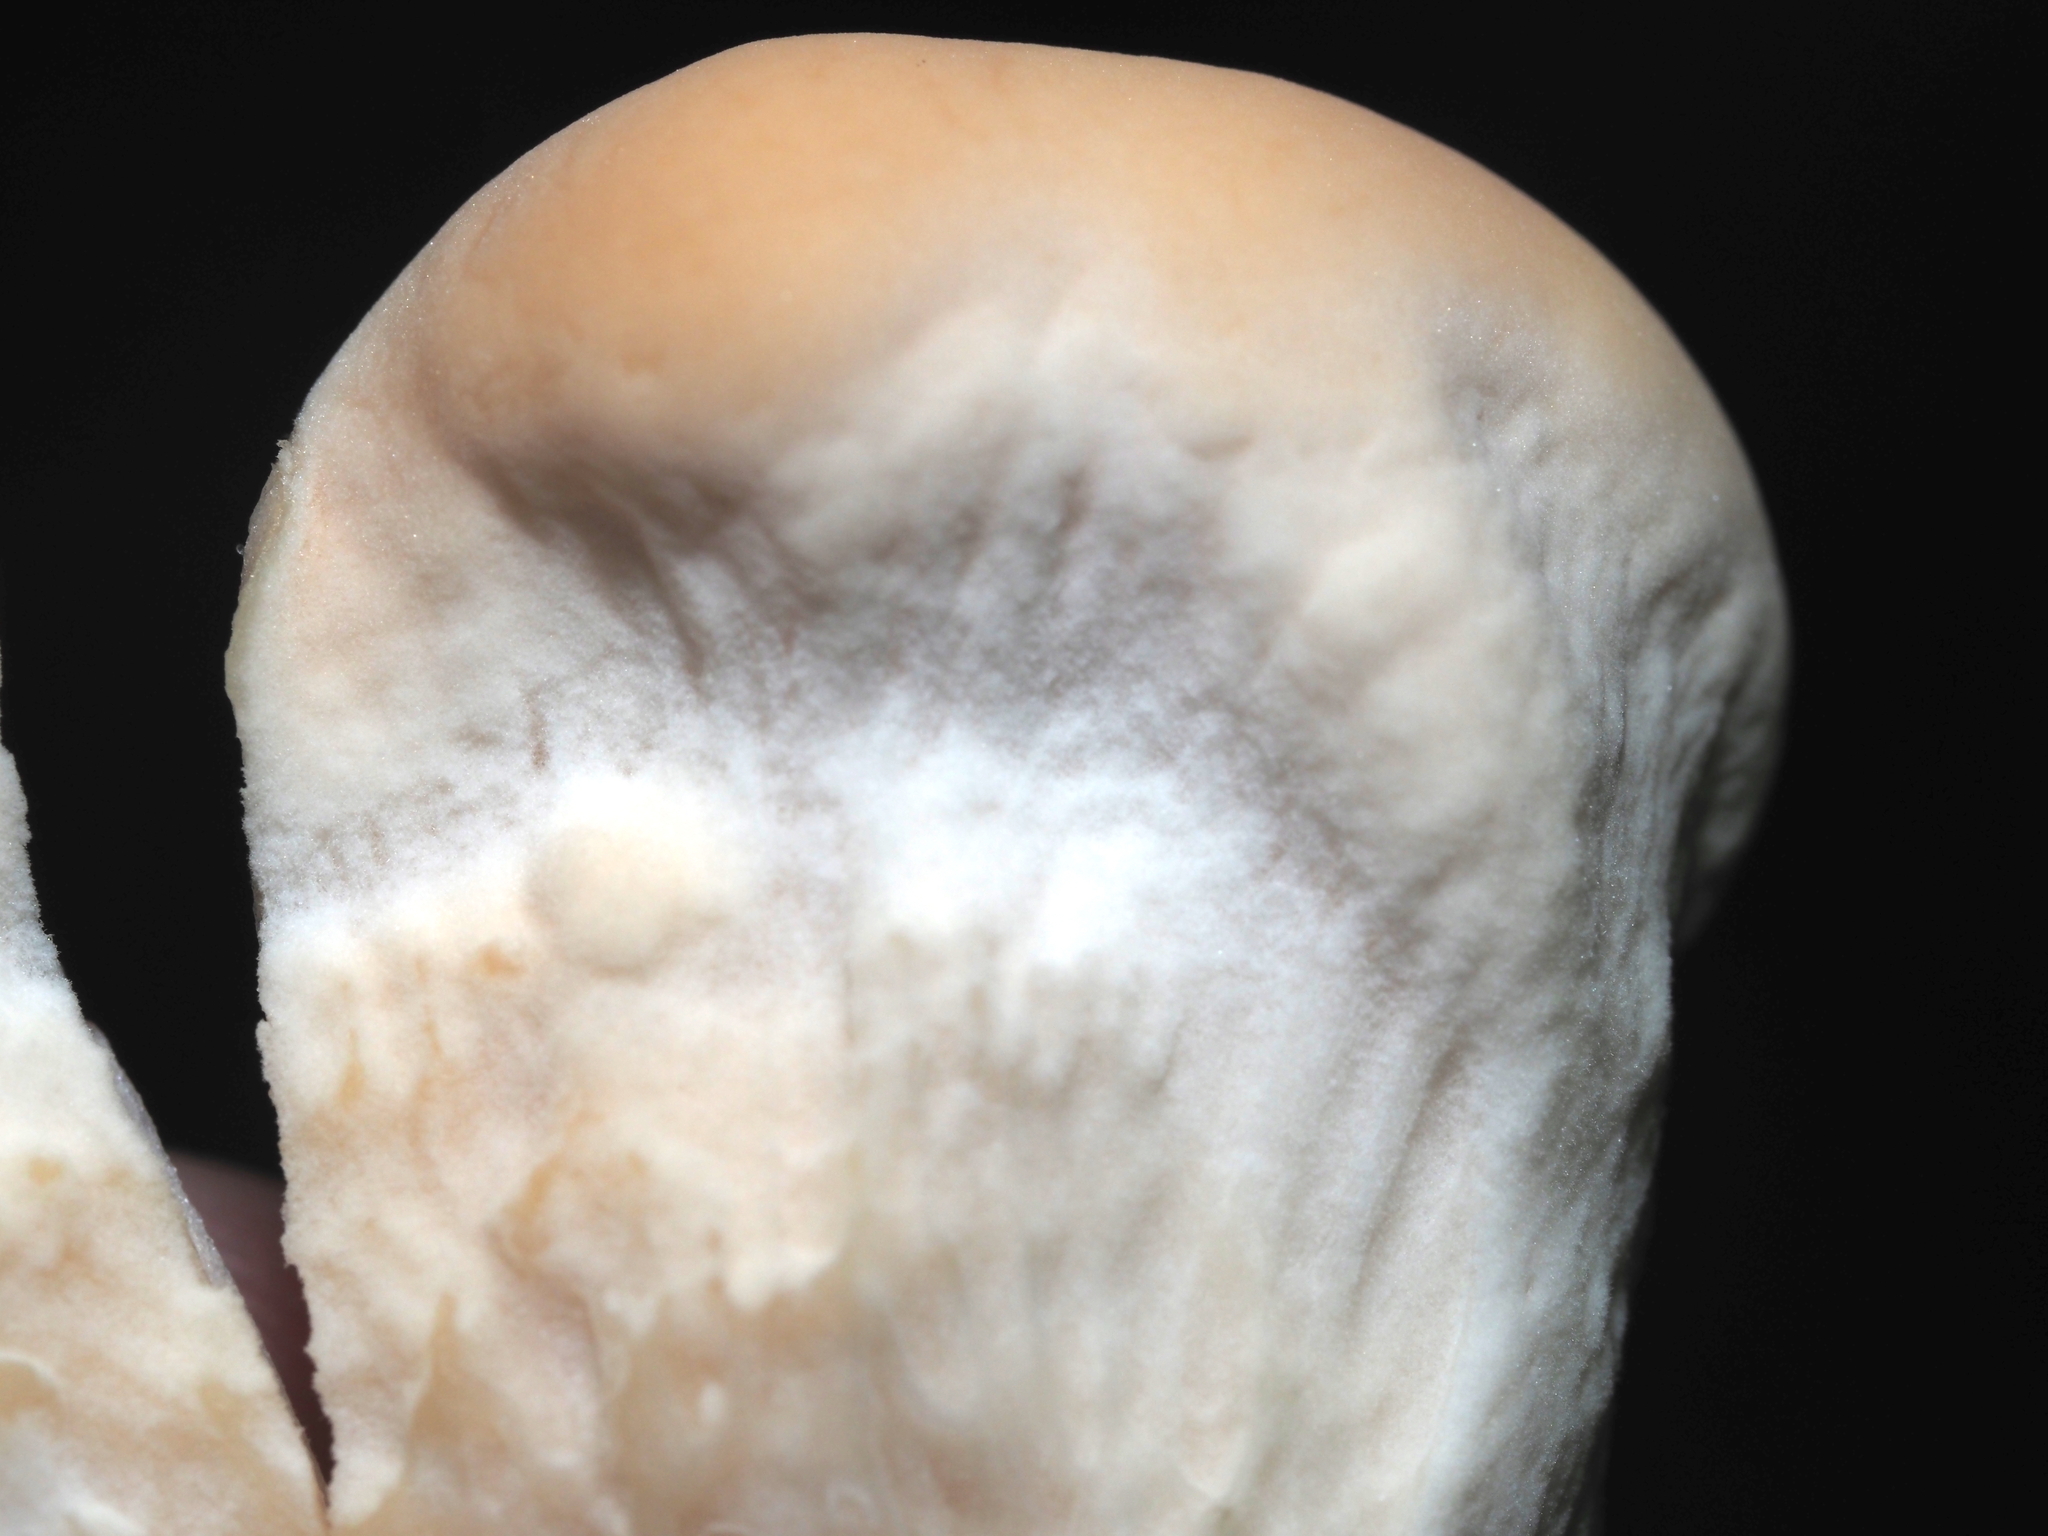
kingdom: Fungi
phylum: Basidiomycota
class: Agaricomycetes
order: Polyporales
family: Laetiporaceae
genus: Laetiporus
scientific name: Laetiporus sulphureus
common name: Chicken of the woods
